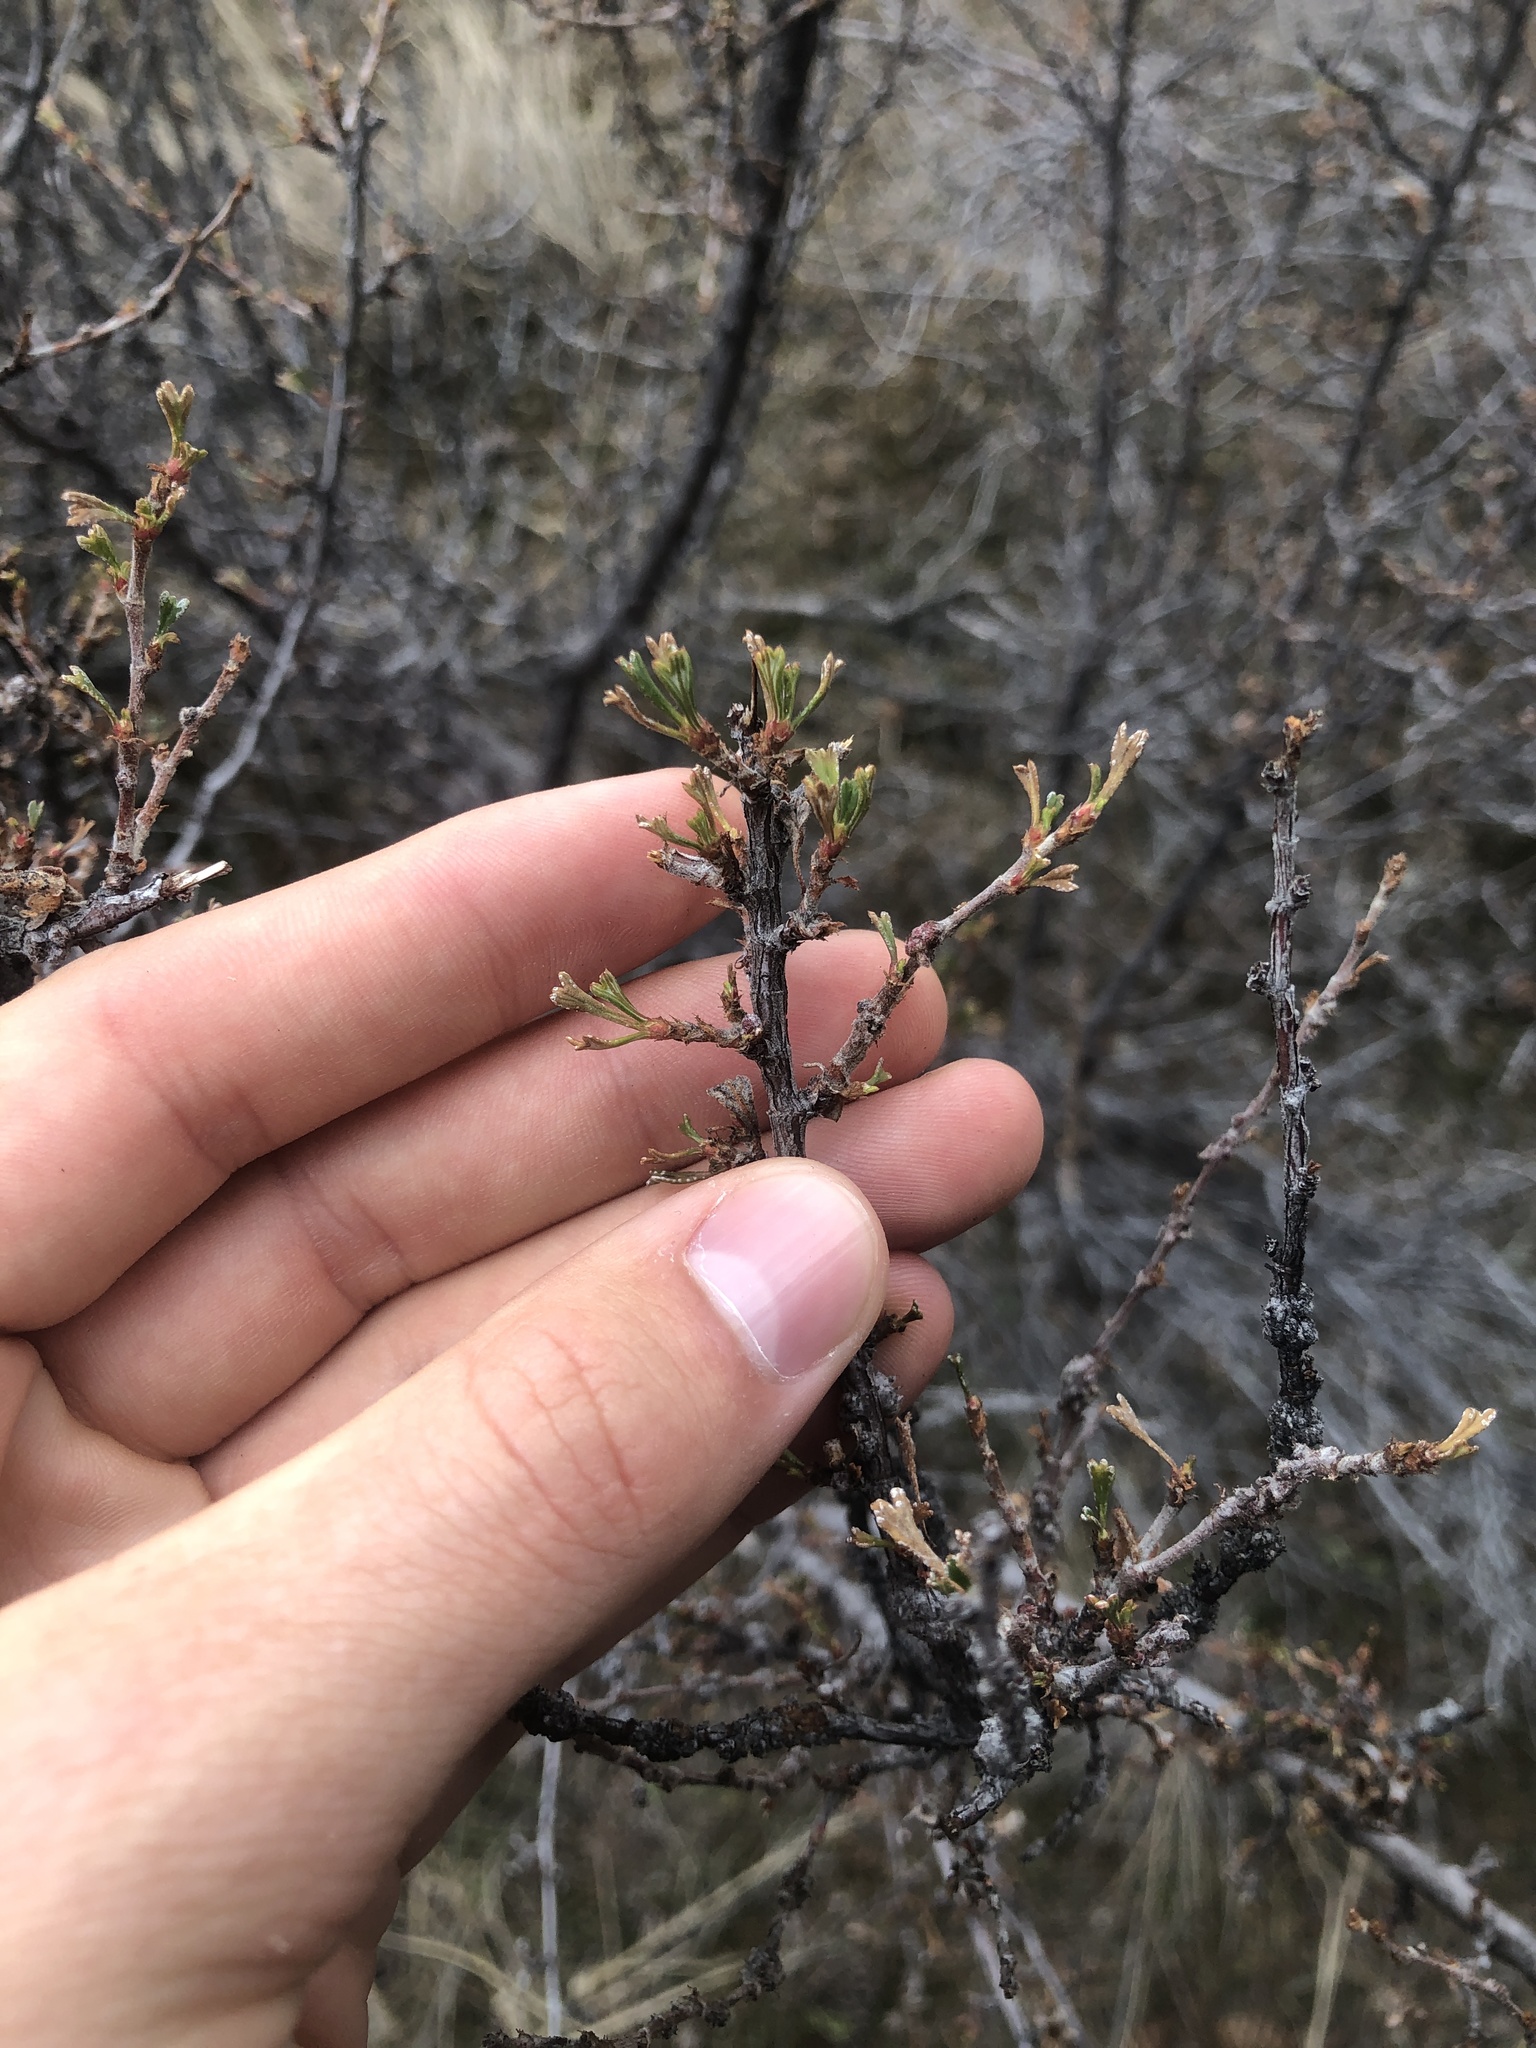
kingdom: Plantae
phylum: Tracheophyta
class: Magnoliopsida
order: Rosales
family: Rosaceae
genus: Purshia
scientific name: Purshia tridentata
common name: Antelope bitterbrush
